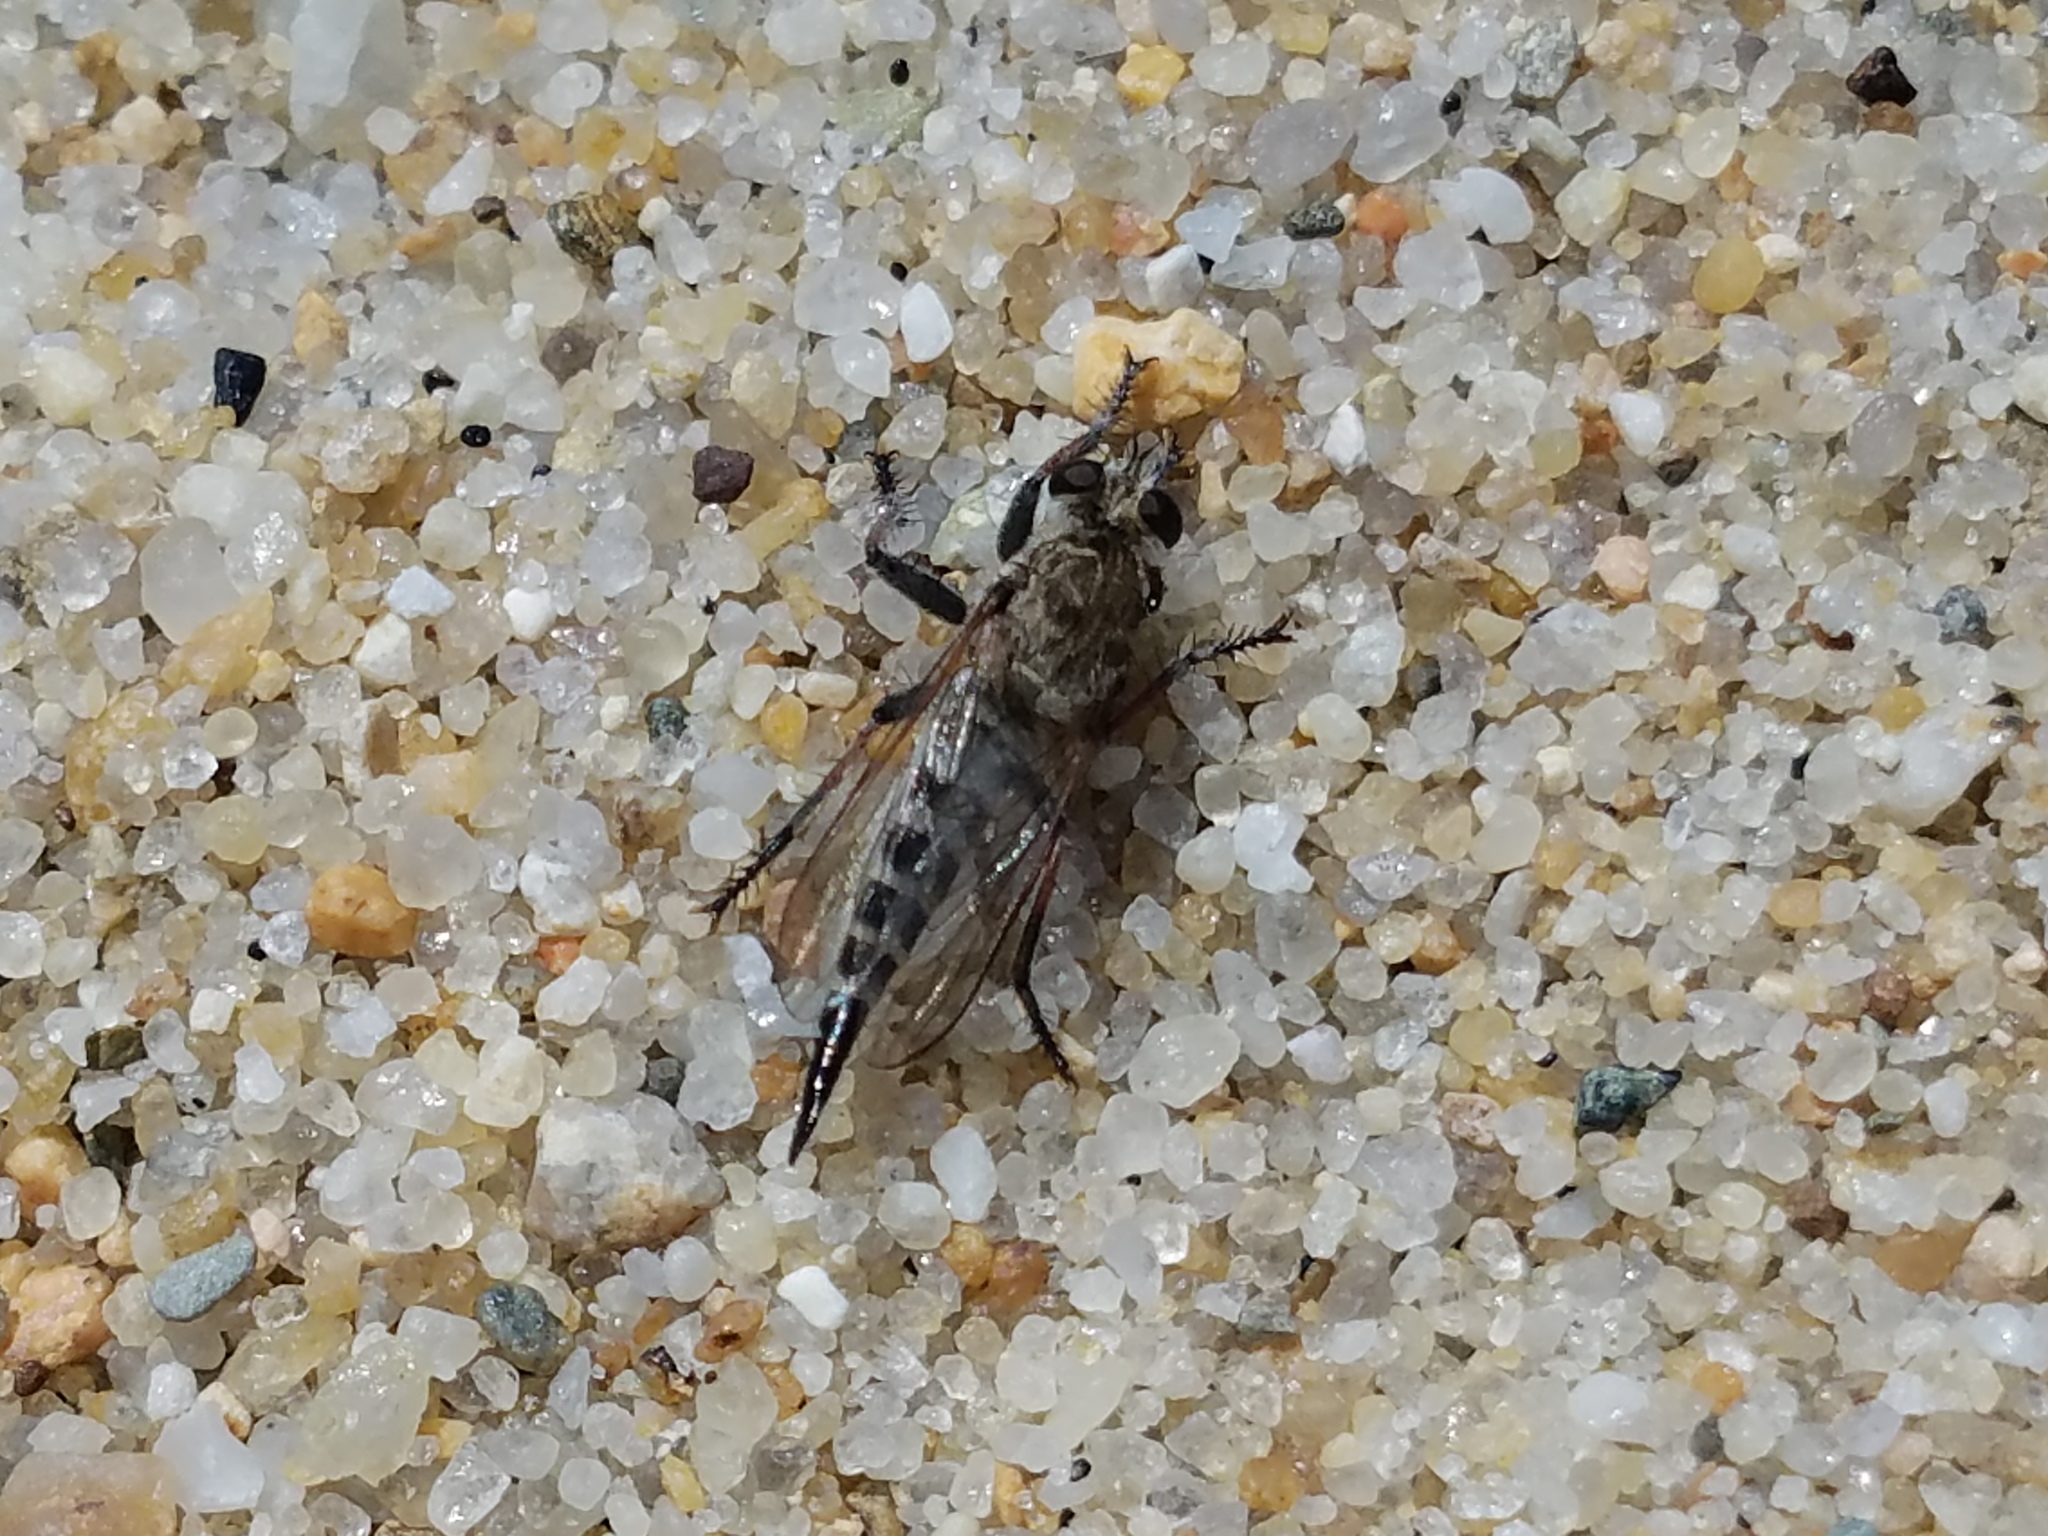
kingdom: Animalia
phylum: Arthropoda
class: Insecta
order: Diptera
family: Asilidae
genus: Efferia
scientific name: Efferia albibarbis
